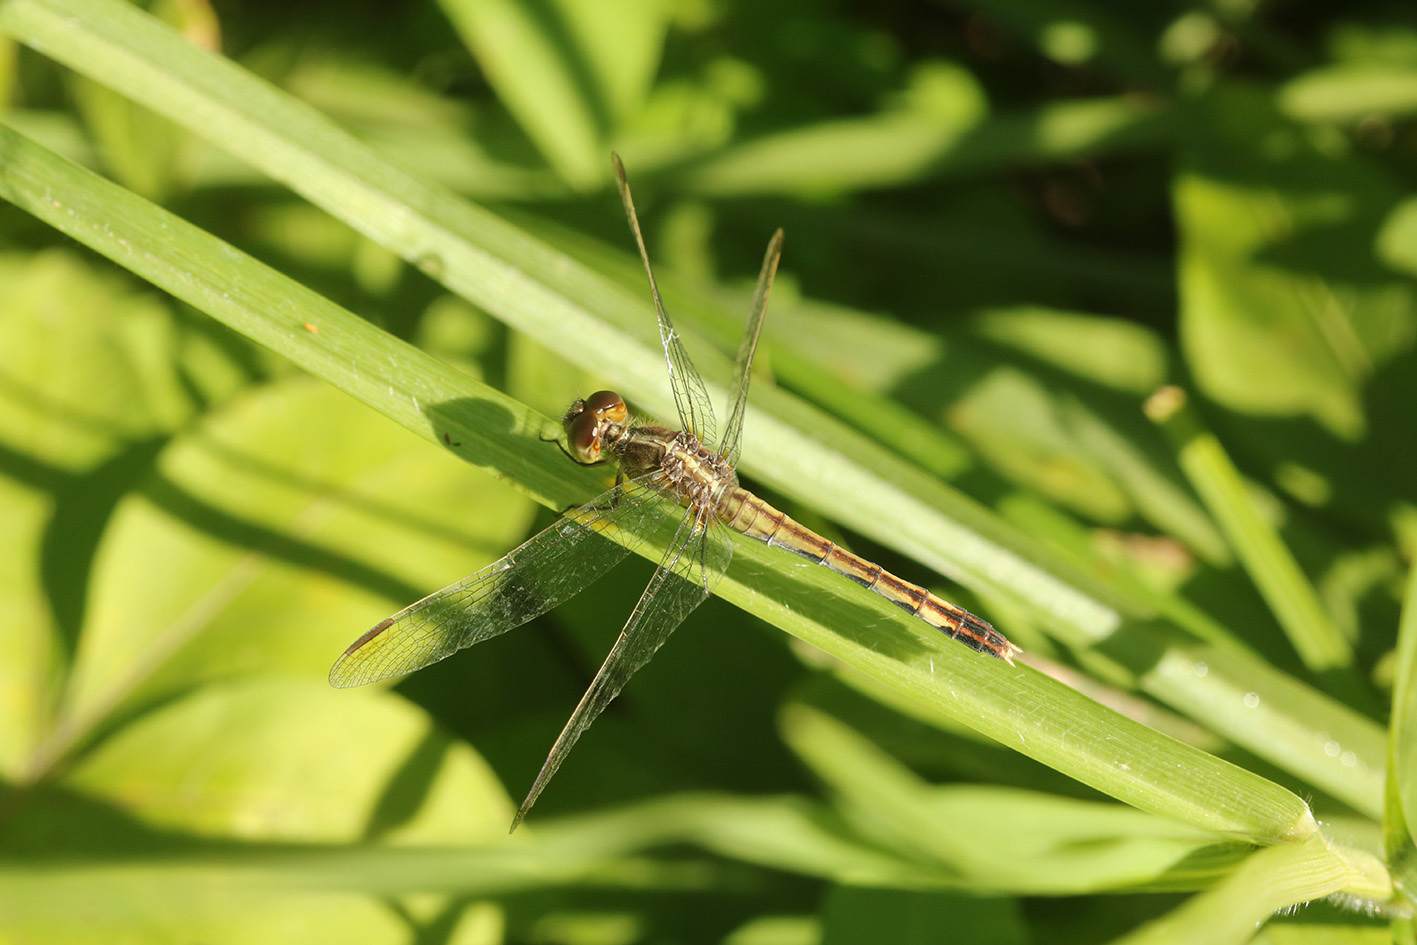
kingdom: Animalia
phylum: Arthropoda
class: Insecta
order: Odonata
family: Libellulidae
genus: Erythrodiplax
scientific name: Erythrodiplax nigricans
